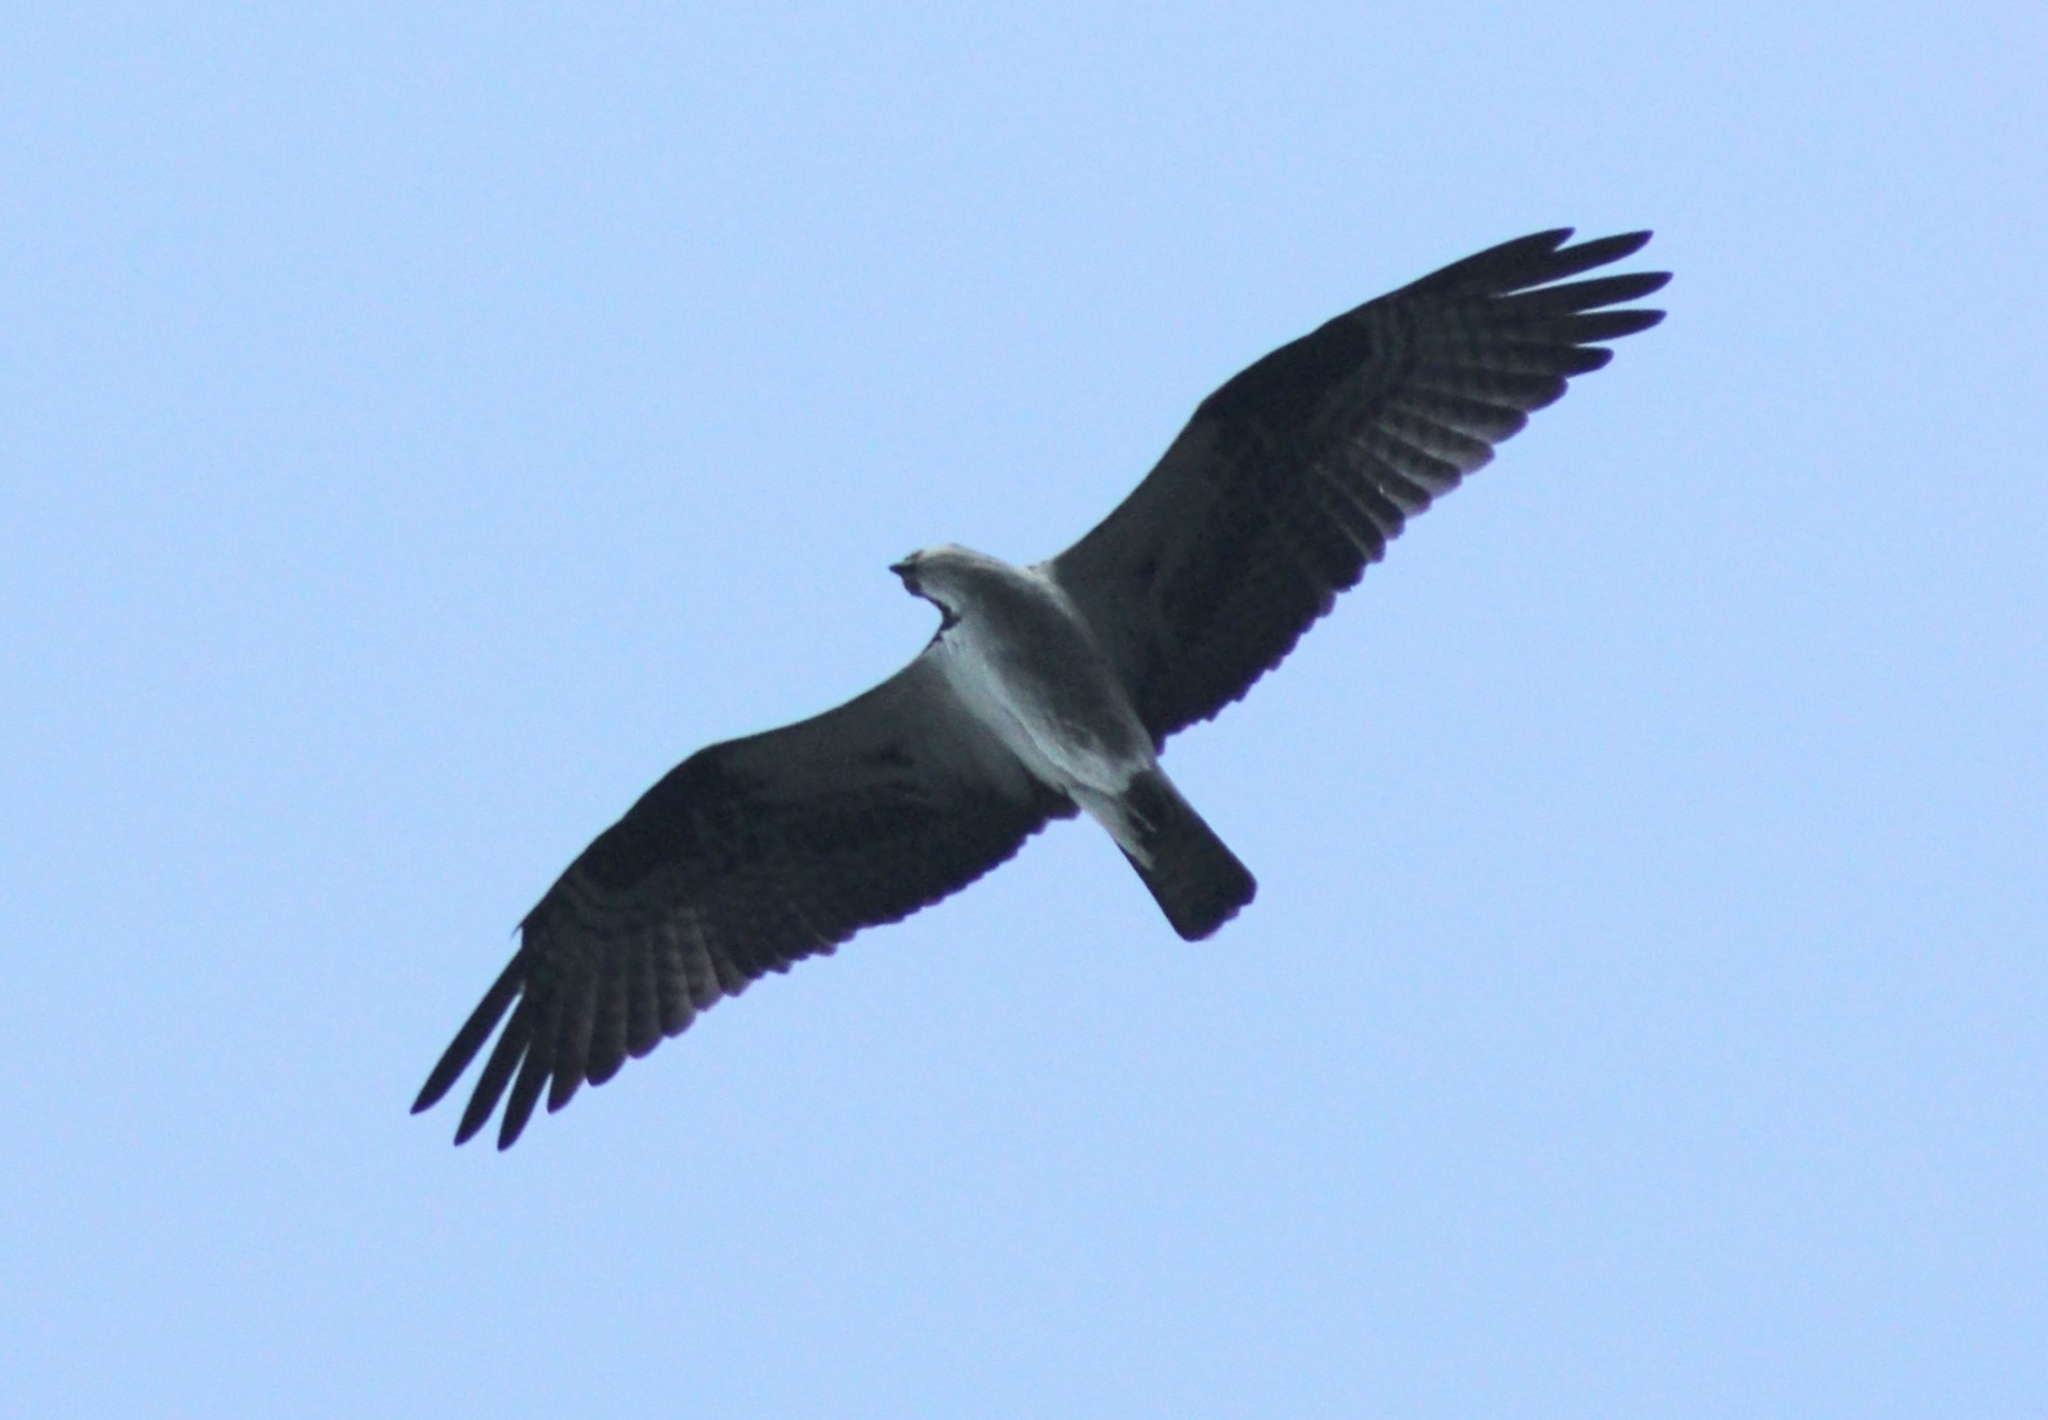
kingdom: Animalia
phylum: Chordata
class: Aves
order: Accipitriformes
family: Pandionidae
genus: Pandion
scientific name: Pandion haliaetus
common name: Osprey
